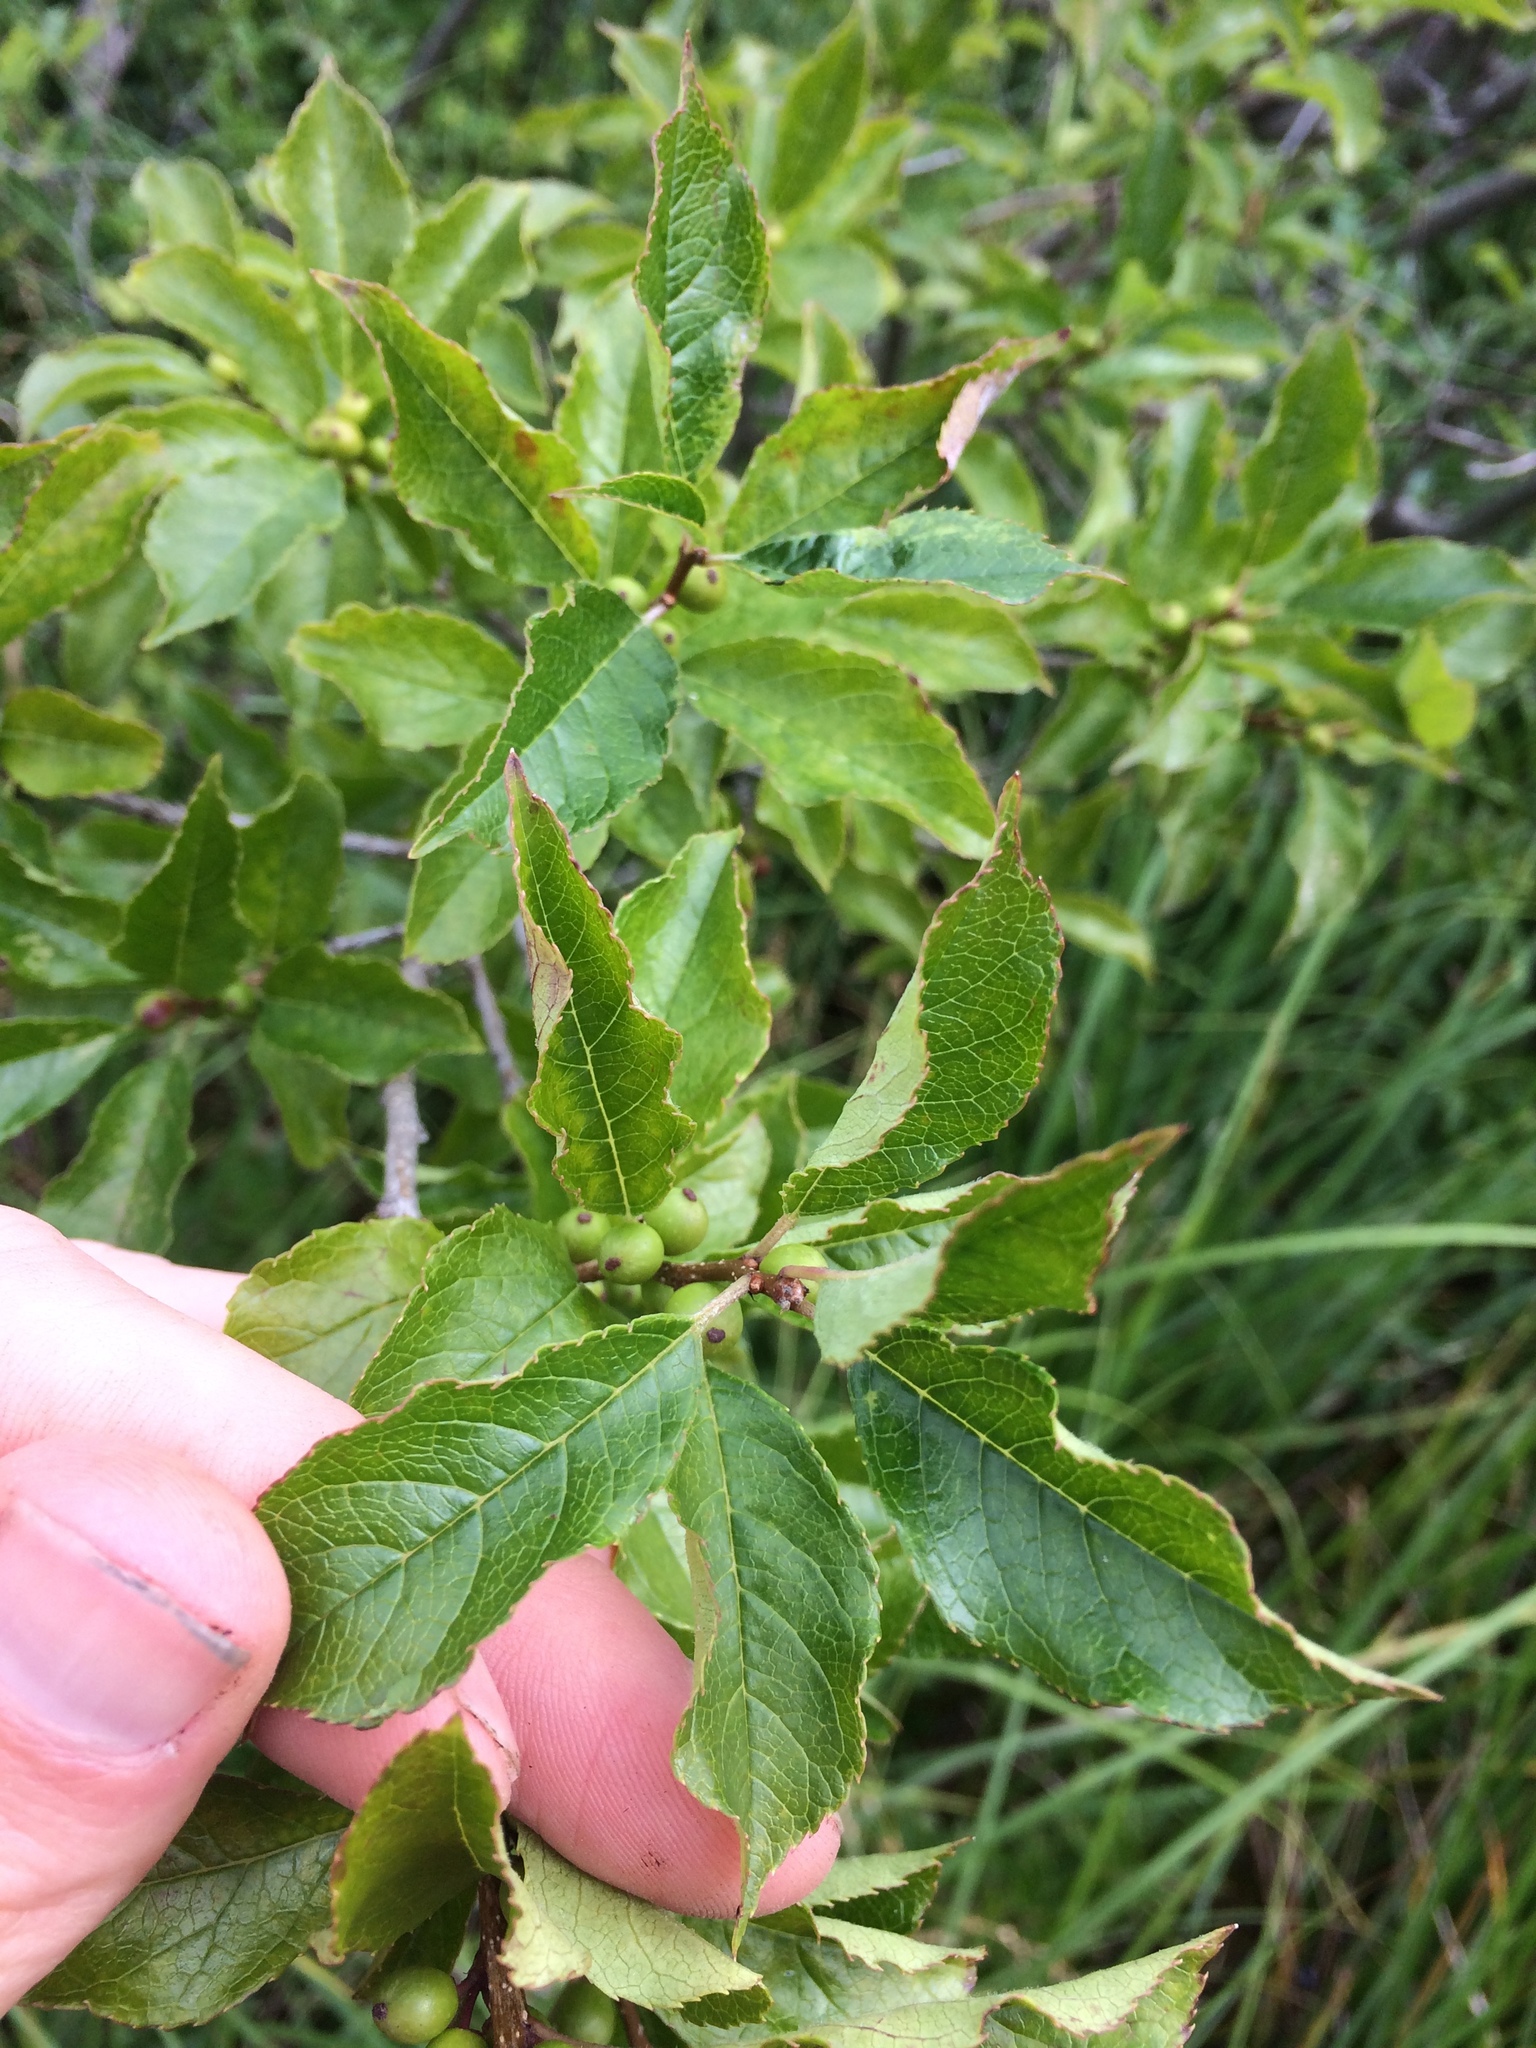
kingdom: Plantae
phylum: Tracheophyta
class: Magnoliopsida
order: Aquifoliales
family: Aquifoliaceae
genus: Ilex
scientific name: Ilex verticillata
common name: Virginia winterberry
